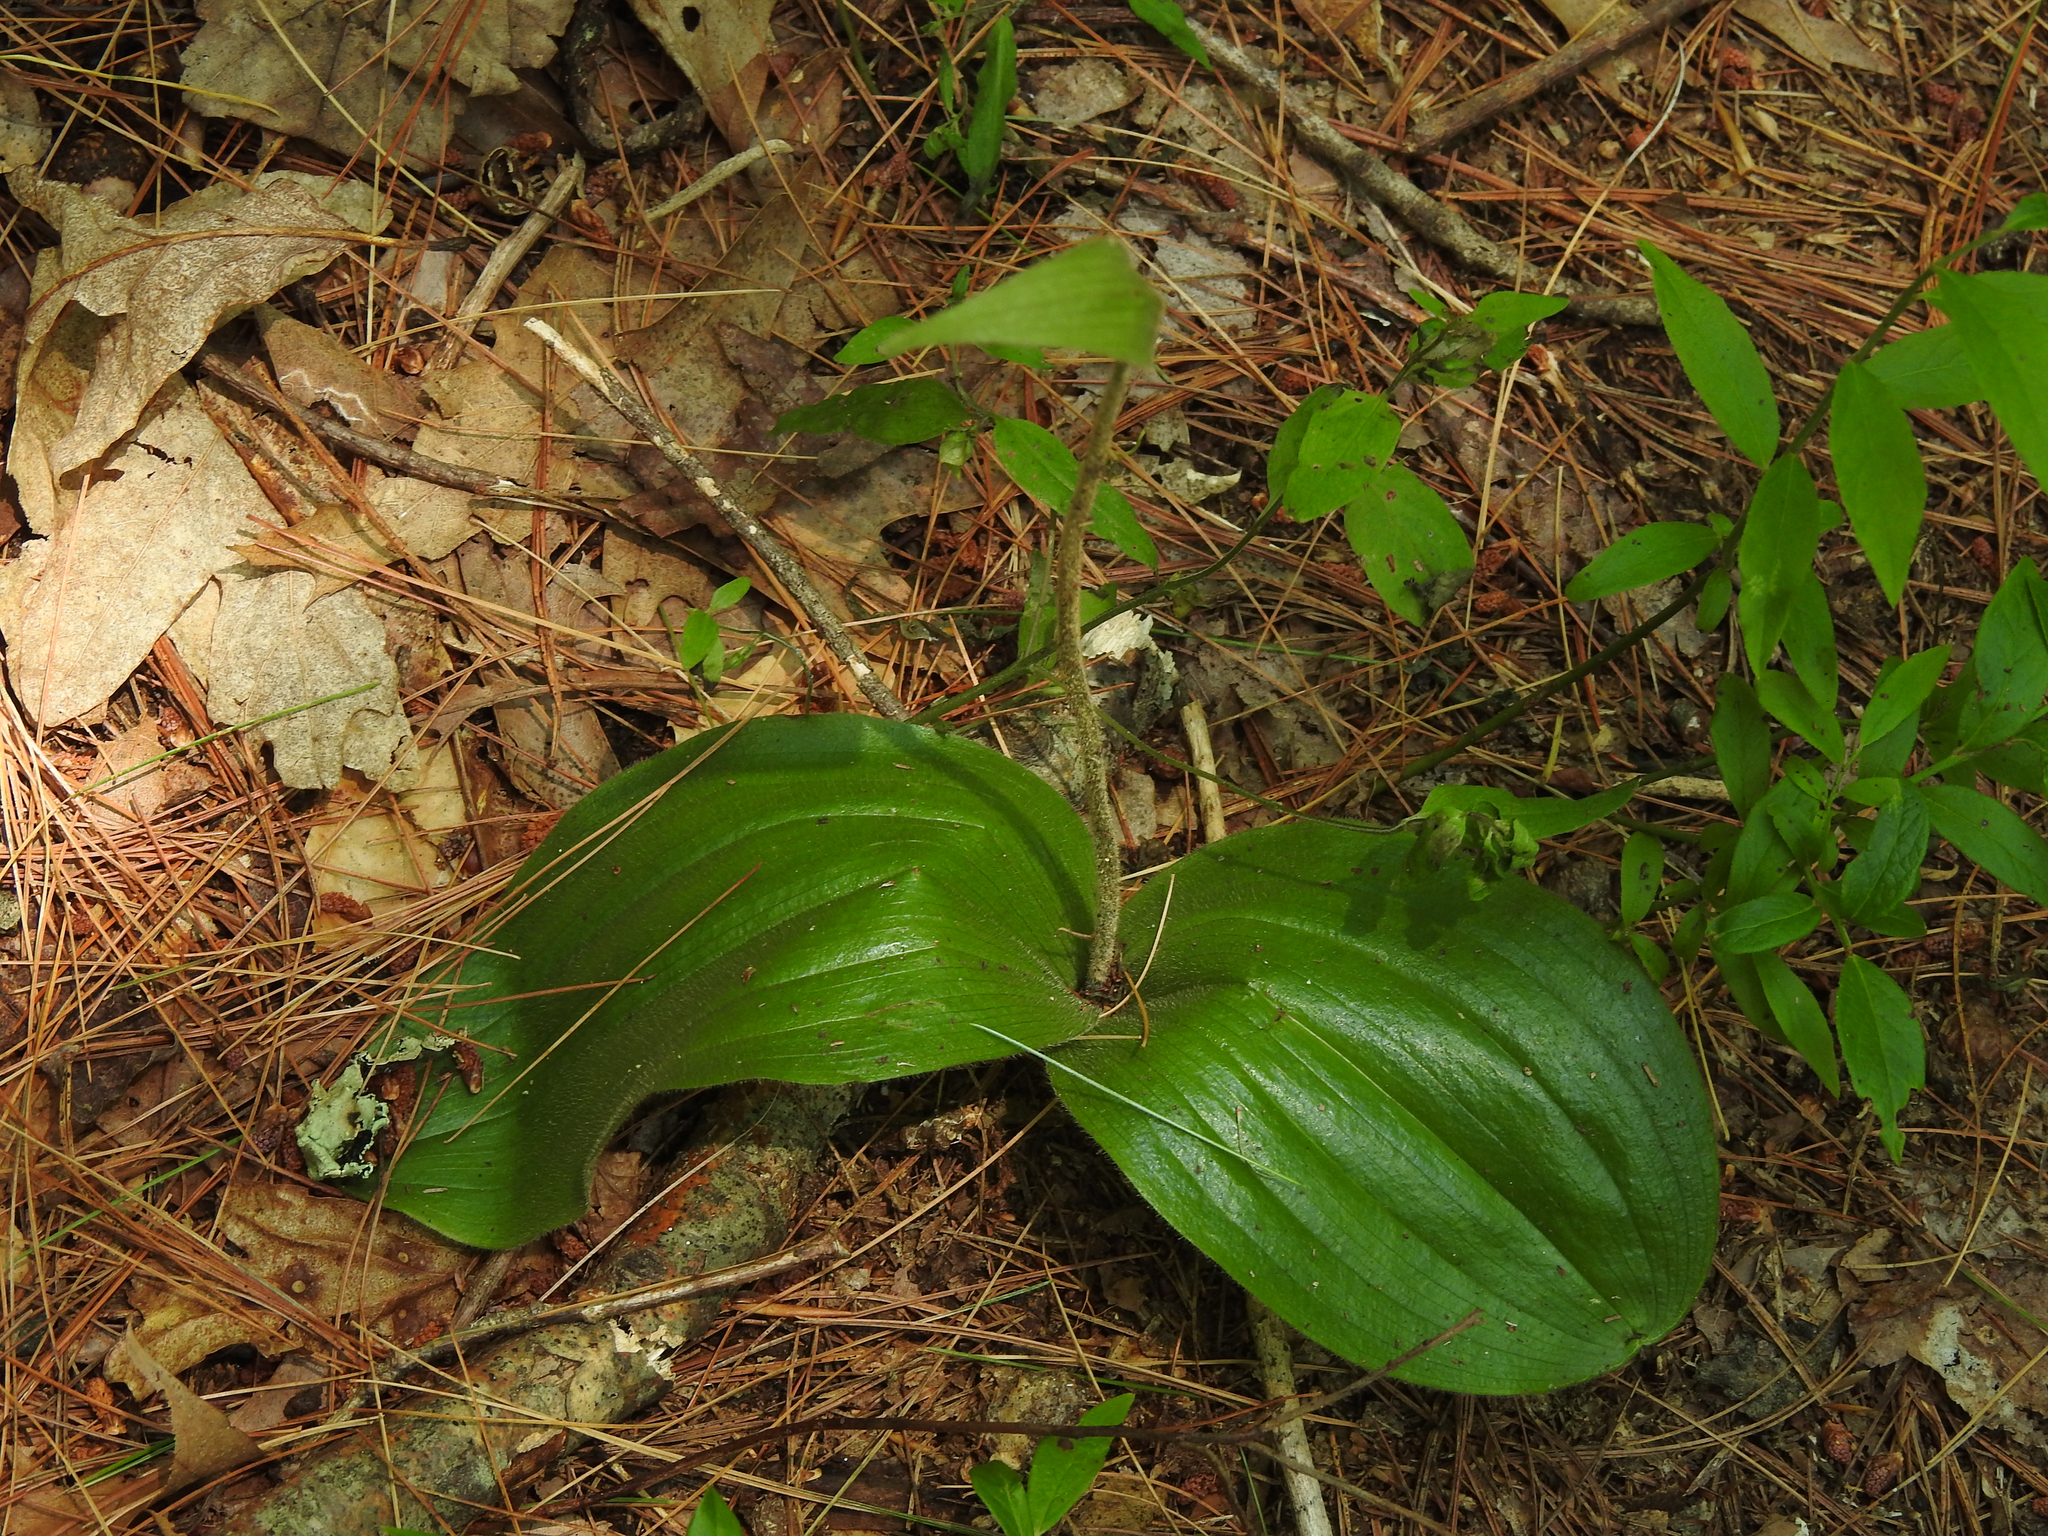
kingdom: Plantae
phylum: Tracheophyta
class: Liliopsida
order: Asparagales
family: Orchidaceae
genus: Cypripedium
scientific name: Cypripedium acaule
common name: Pink lady's-slipper
